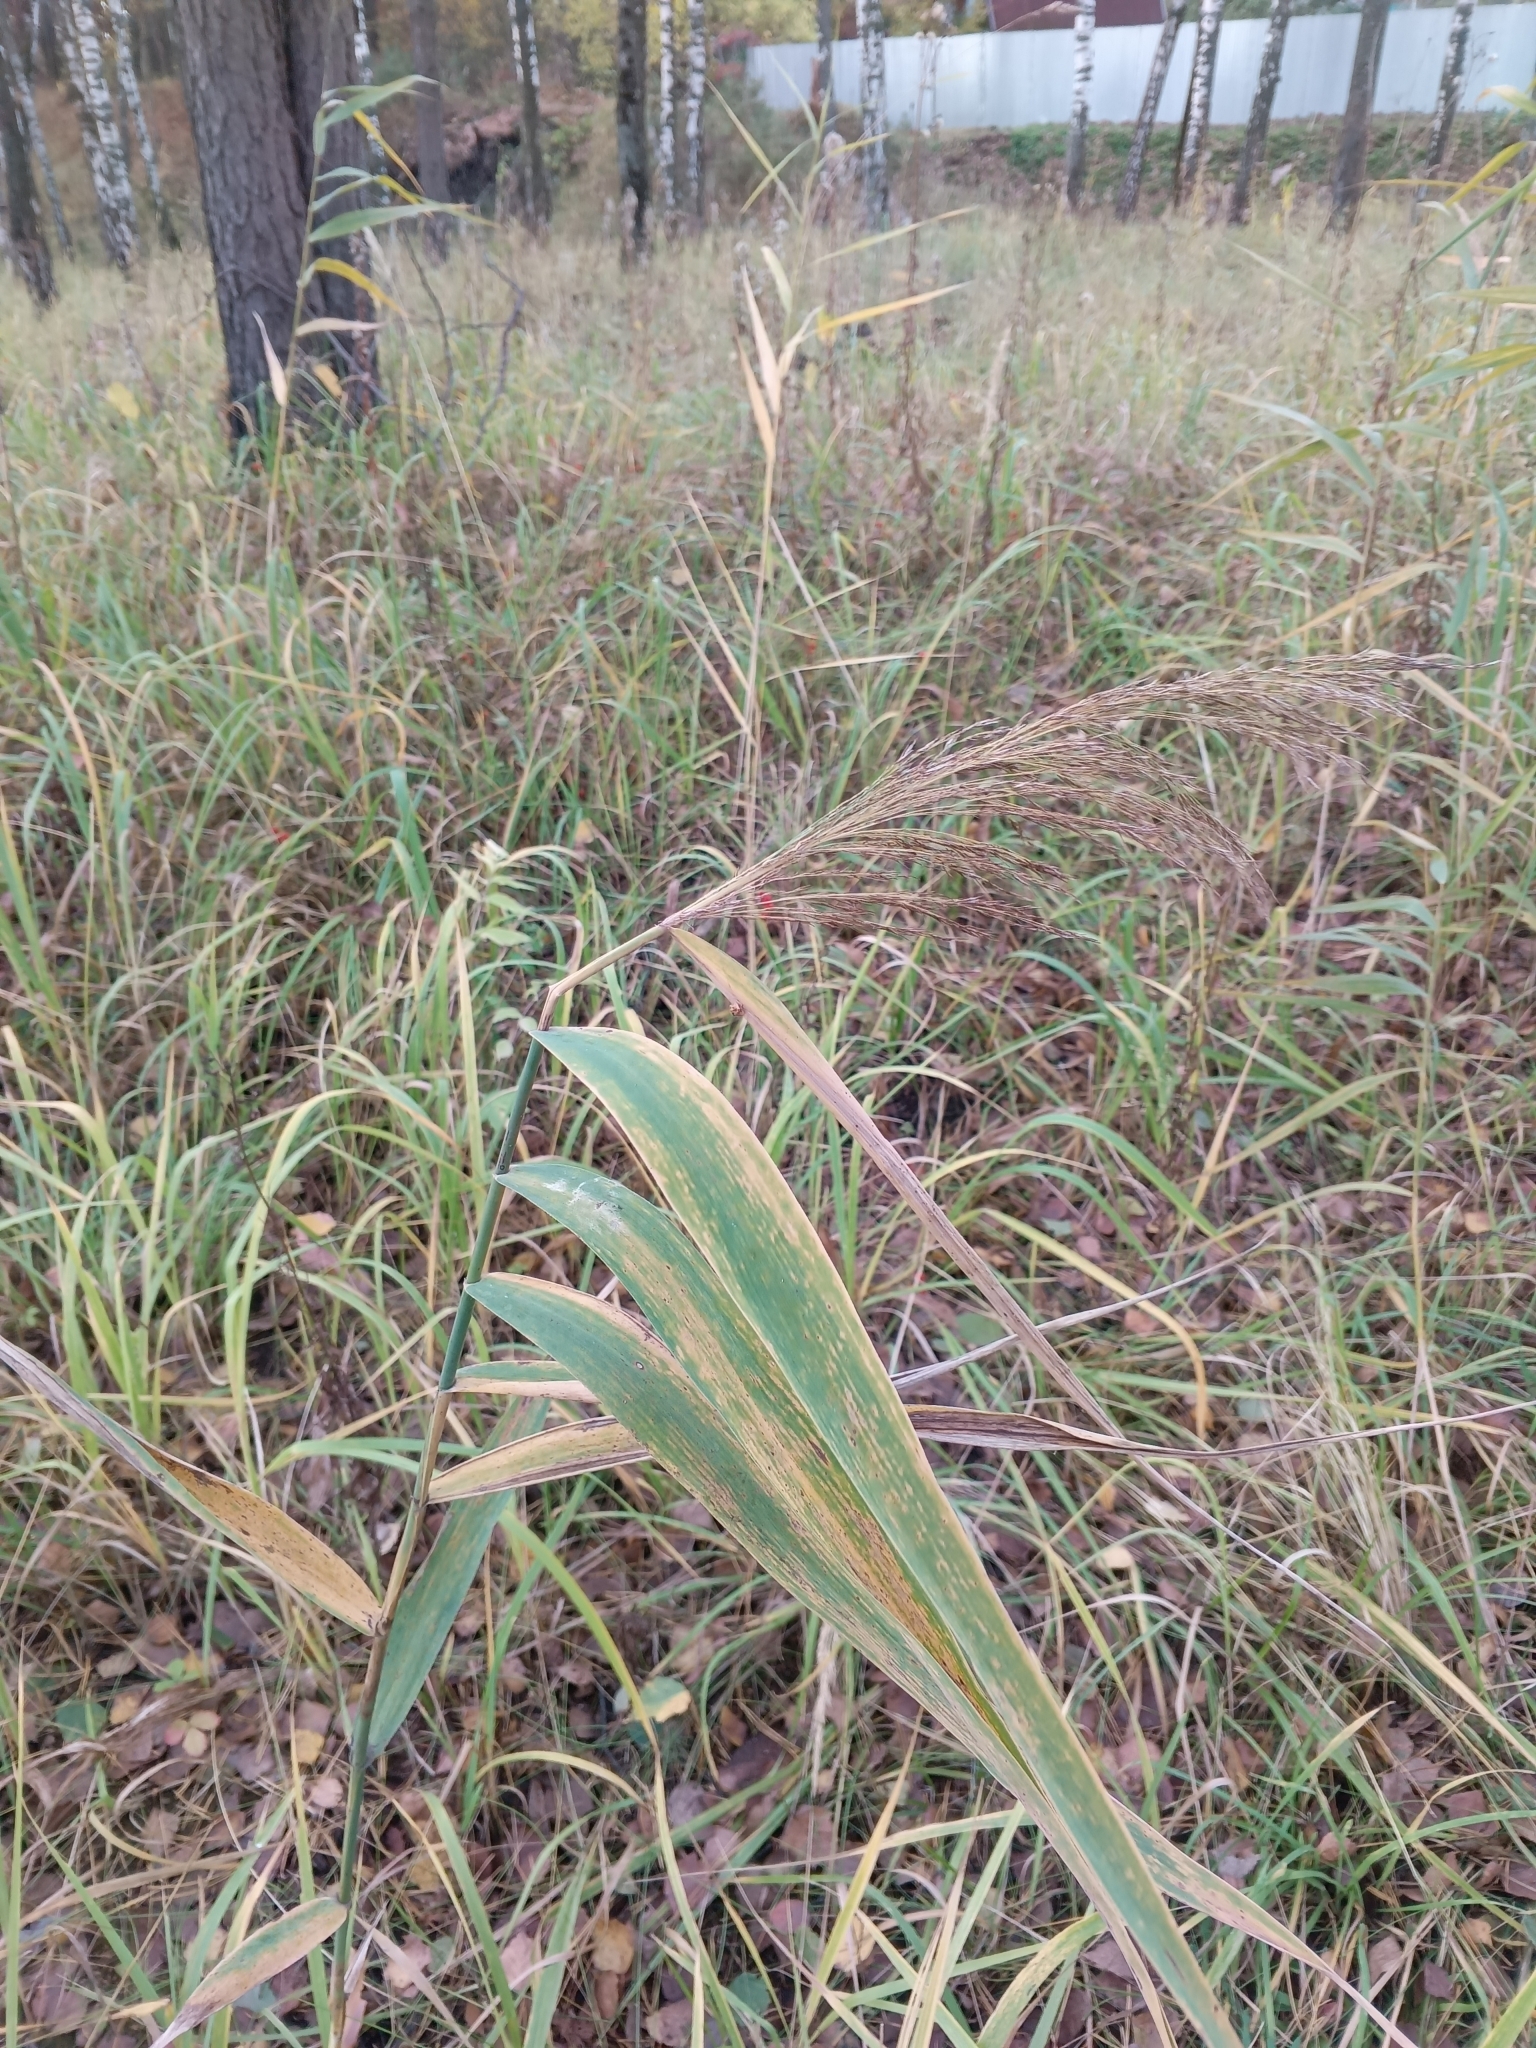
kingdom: Plantae
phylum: Tracheophyta
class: Liliopsida
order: Poales
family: Poaceae
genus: Phragmites
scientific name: Phragmites australis
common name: Common reed
